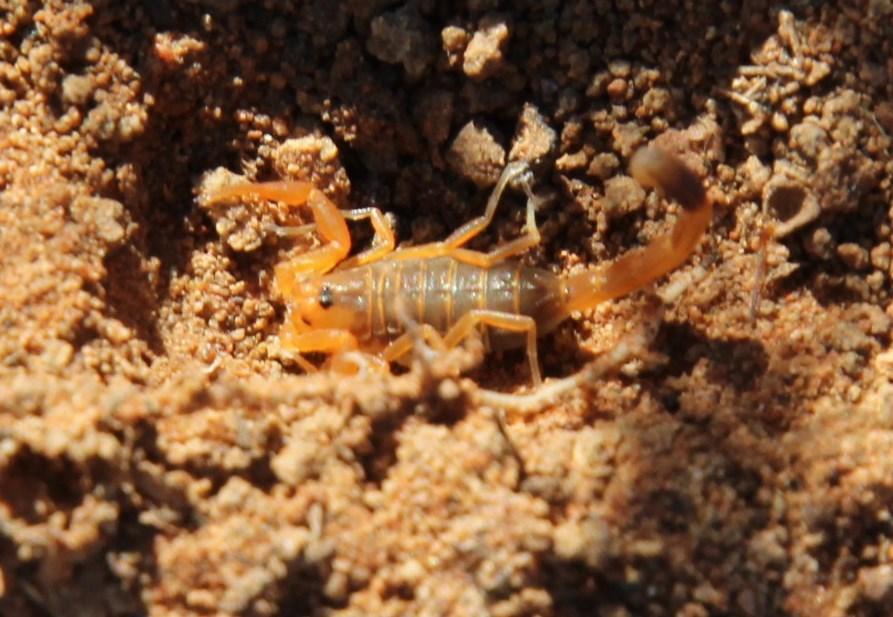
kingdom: Animalia
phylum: Arthropoda
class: Arachnida
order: Scorpiones
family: Buthidae
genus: Uroplectes
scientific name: Uroplectes gracilior
